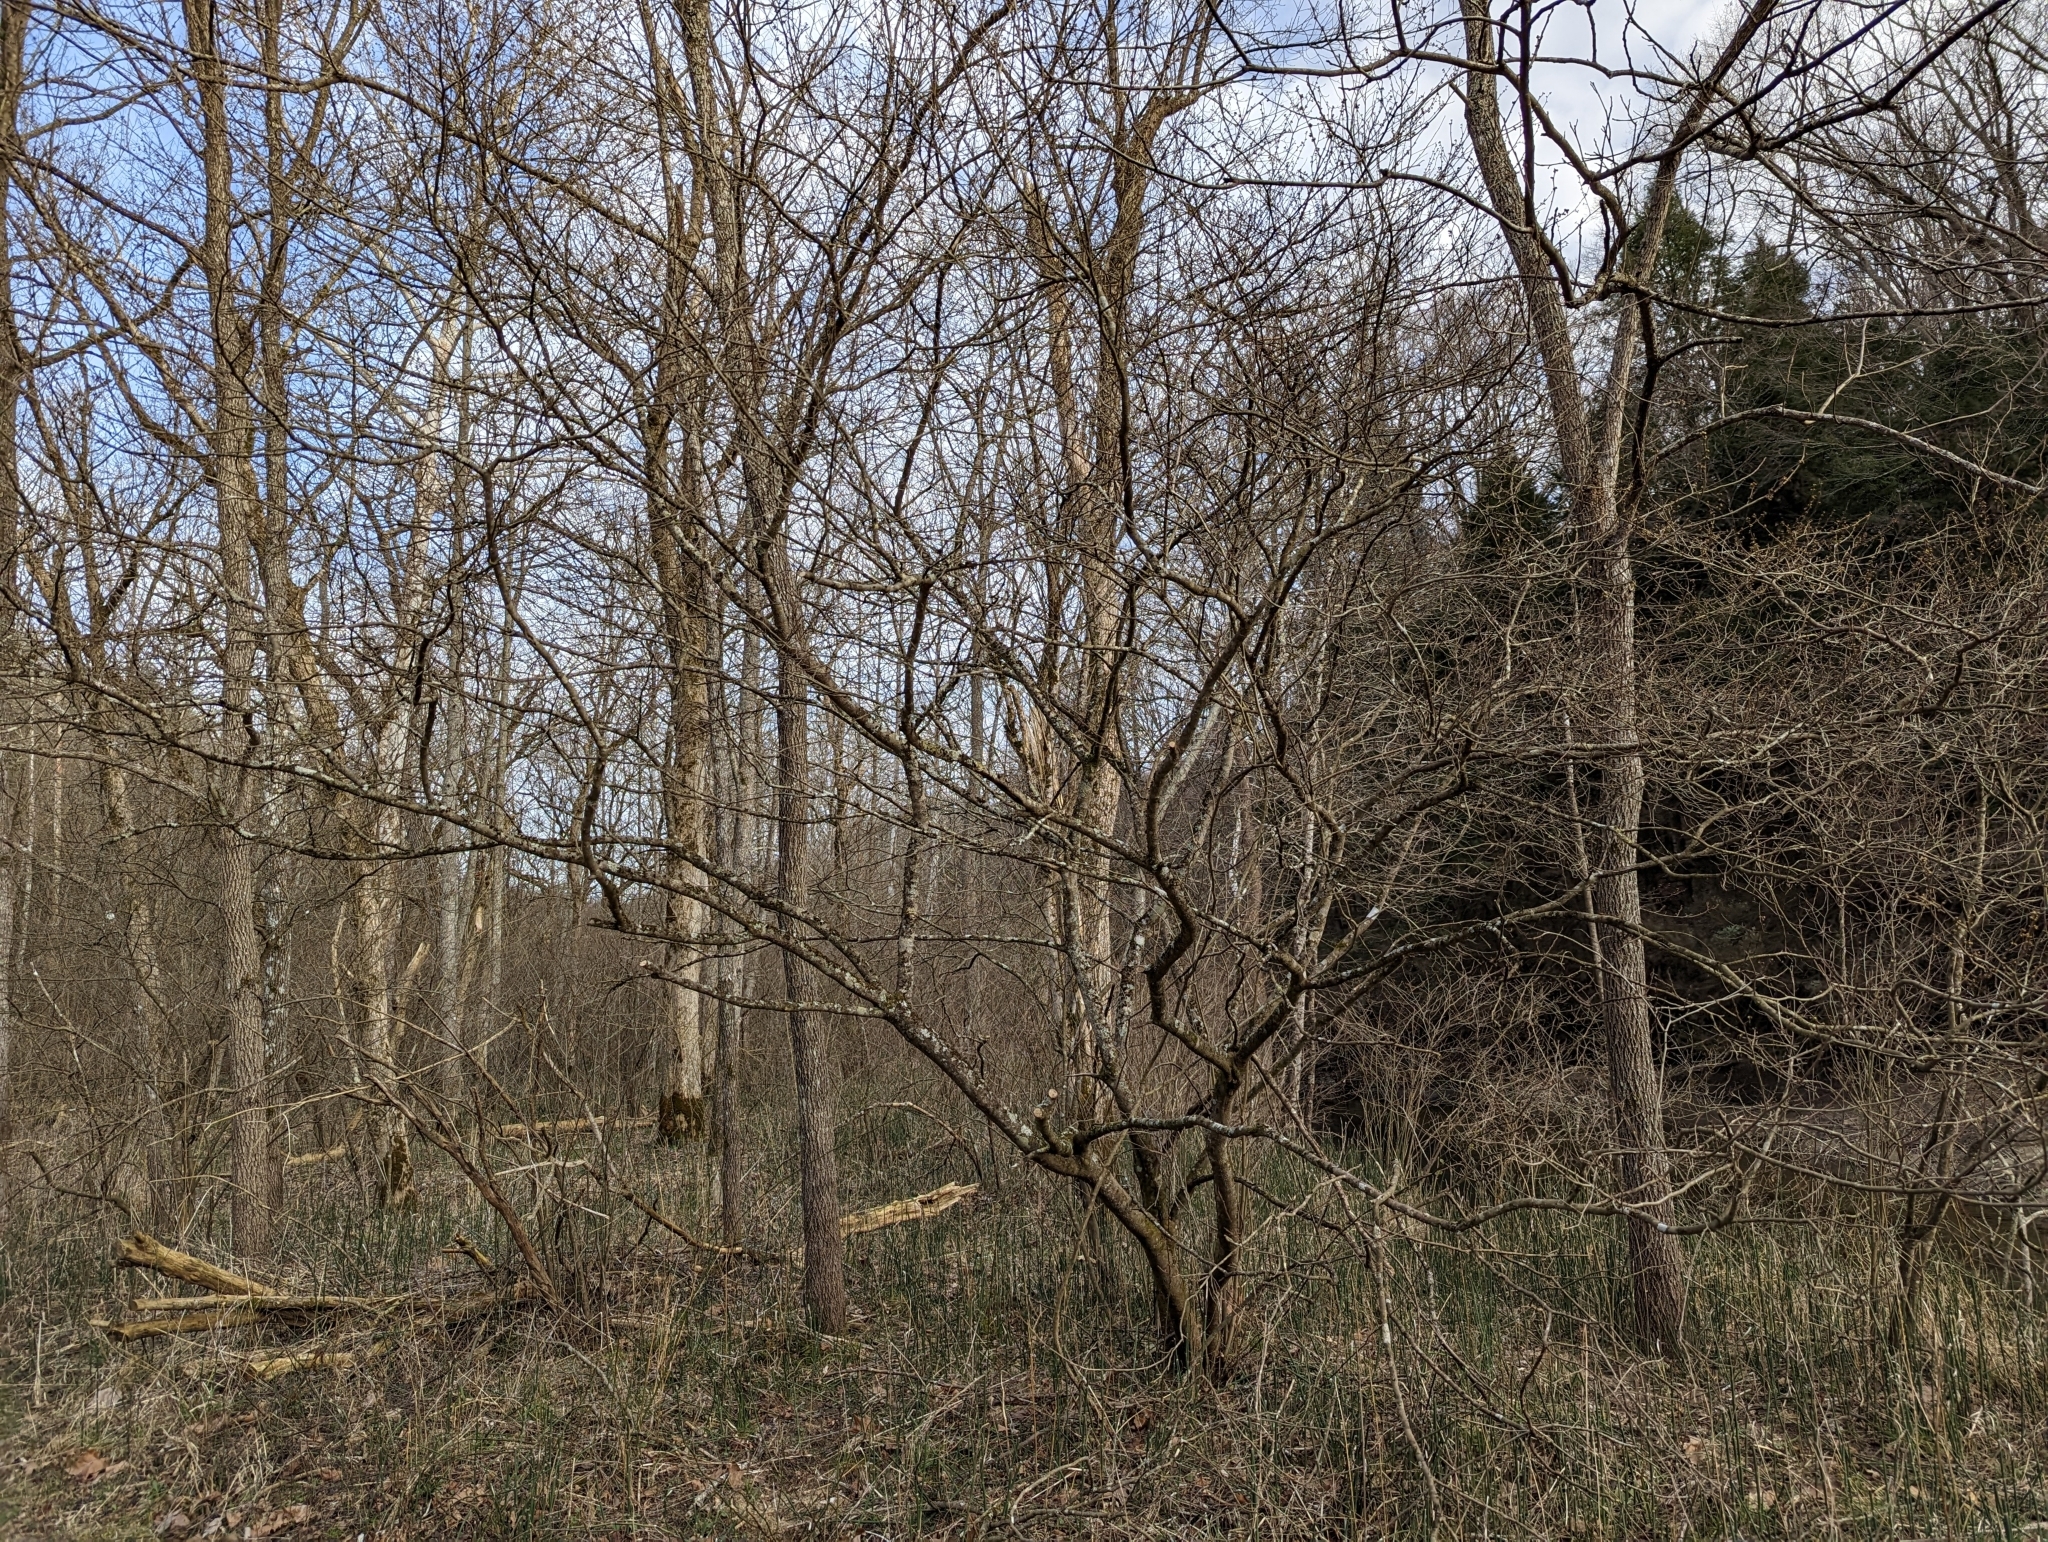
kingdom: Plantae
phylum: Tracheophyta
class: Magnoliopsida
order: Laurales
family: Lauraceae
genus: Lindera
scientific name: Lindera benzoin
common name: Spicebush
